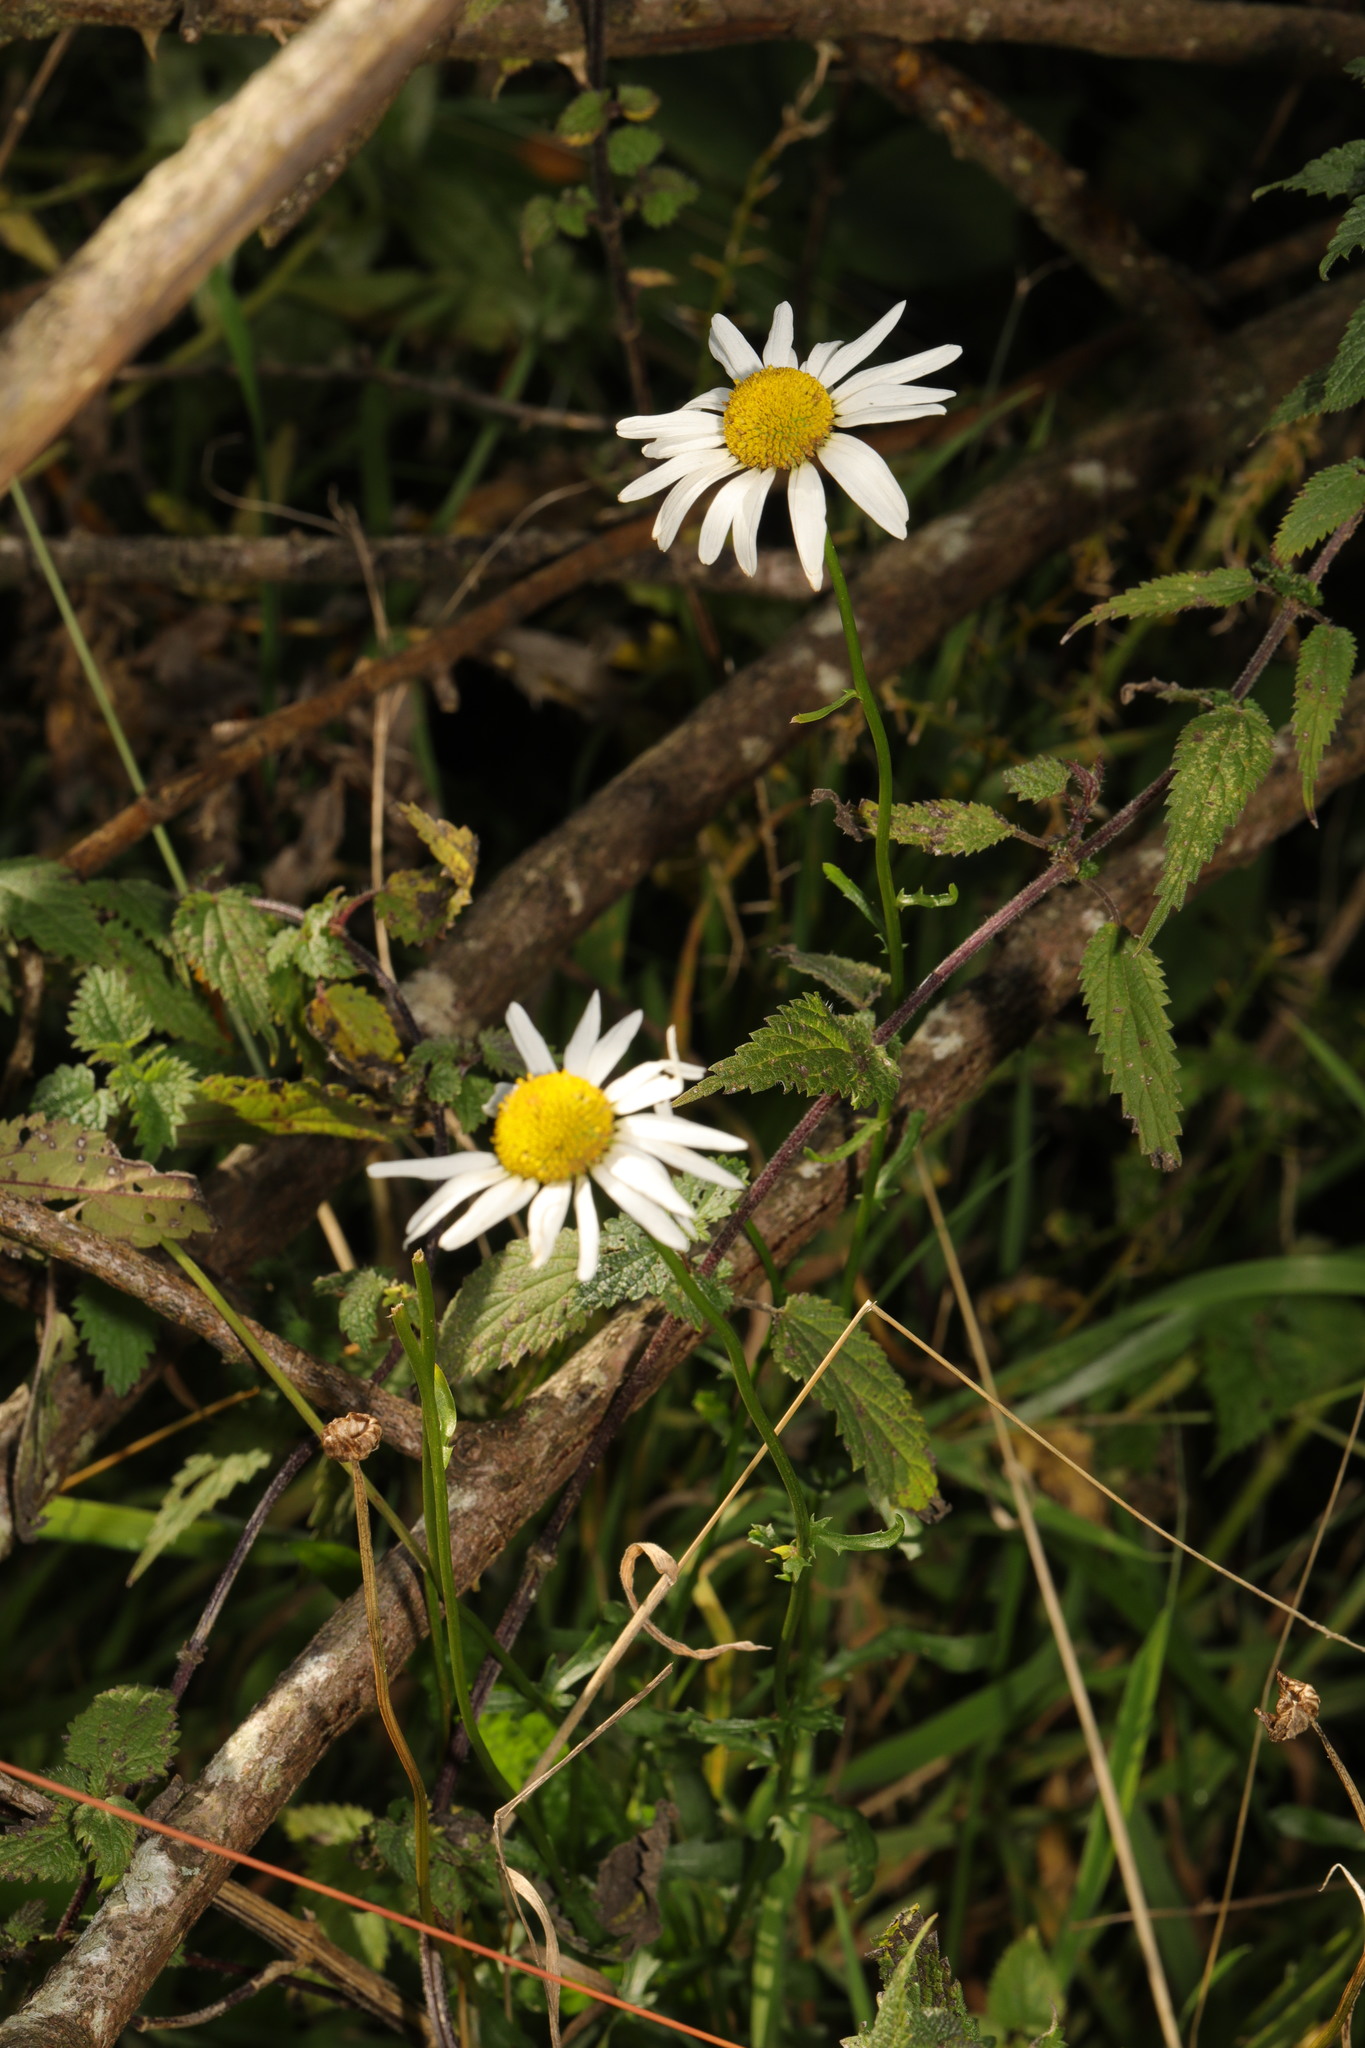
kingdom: Plantae
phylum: Tracheophyta
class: Magnoliopsida
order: Asterales
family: Asteraceae
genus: Leucanthemum
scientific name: Leucanthemum vulgare
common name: Oxeye daisy
